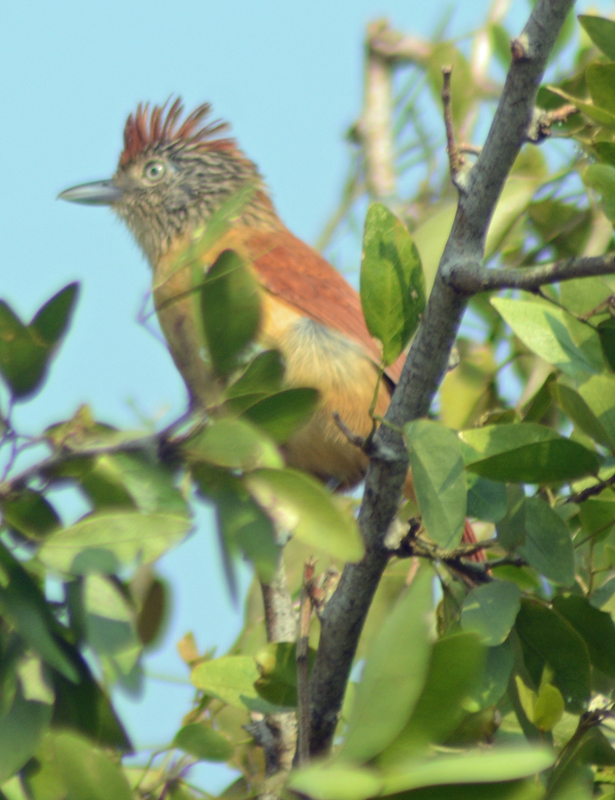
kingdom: Animalia
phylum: Chordata
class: Aves
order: Passeriformes
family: Thamnophilidae
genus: Thamnophilus
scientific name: Thamnophilus doliatus
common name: Barred antshrike
